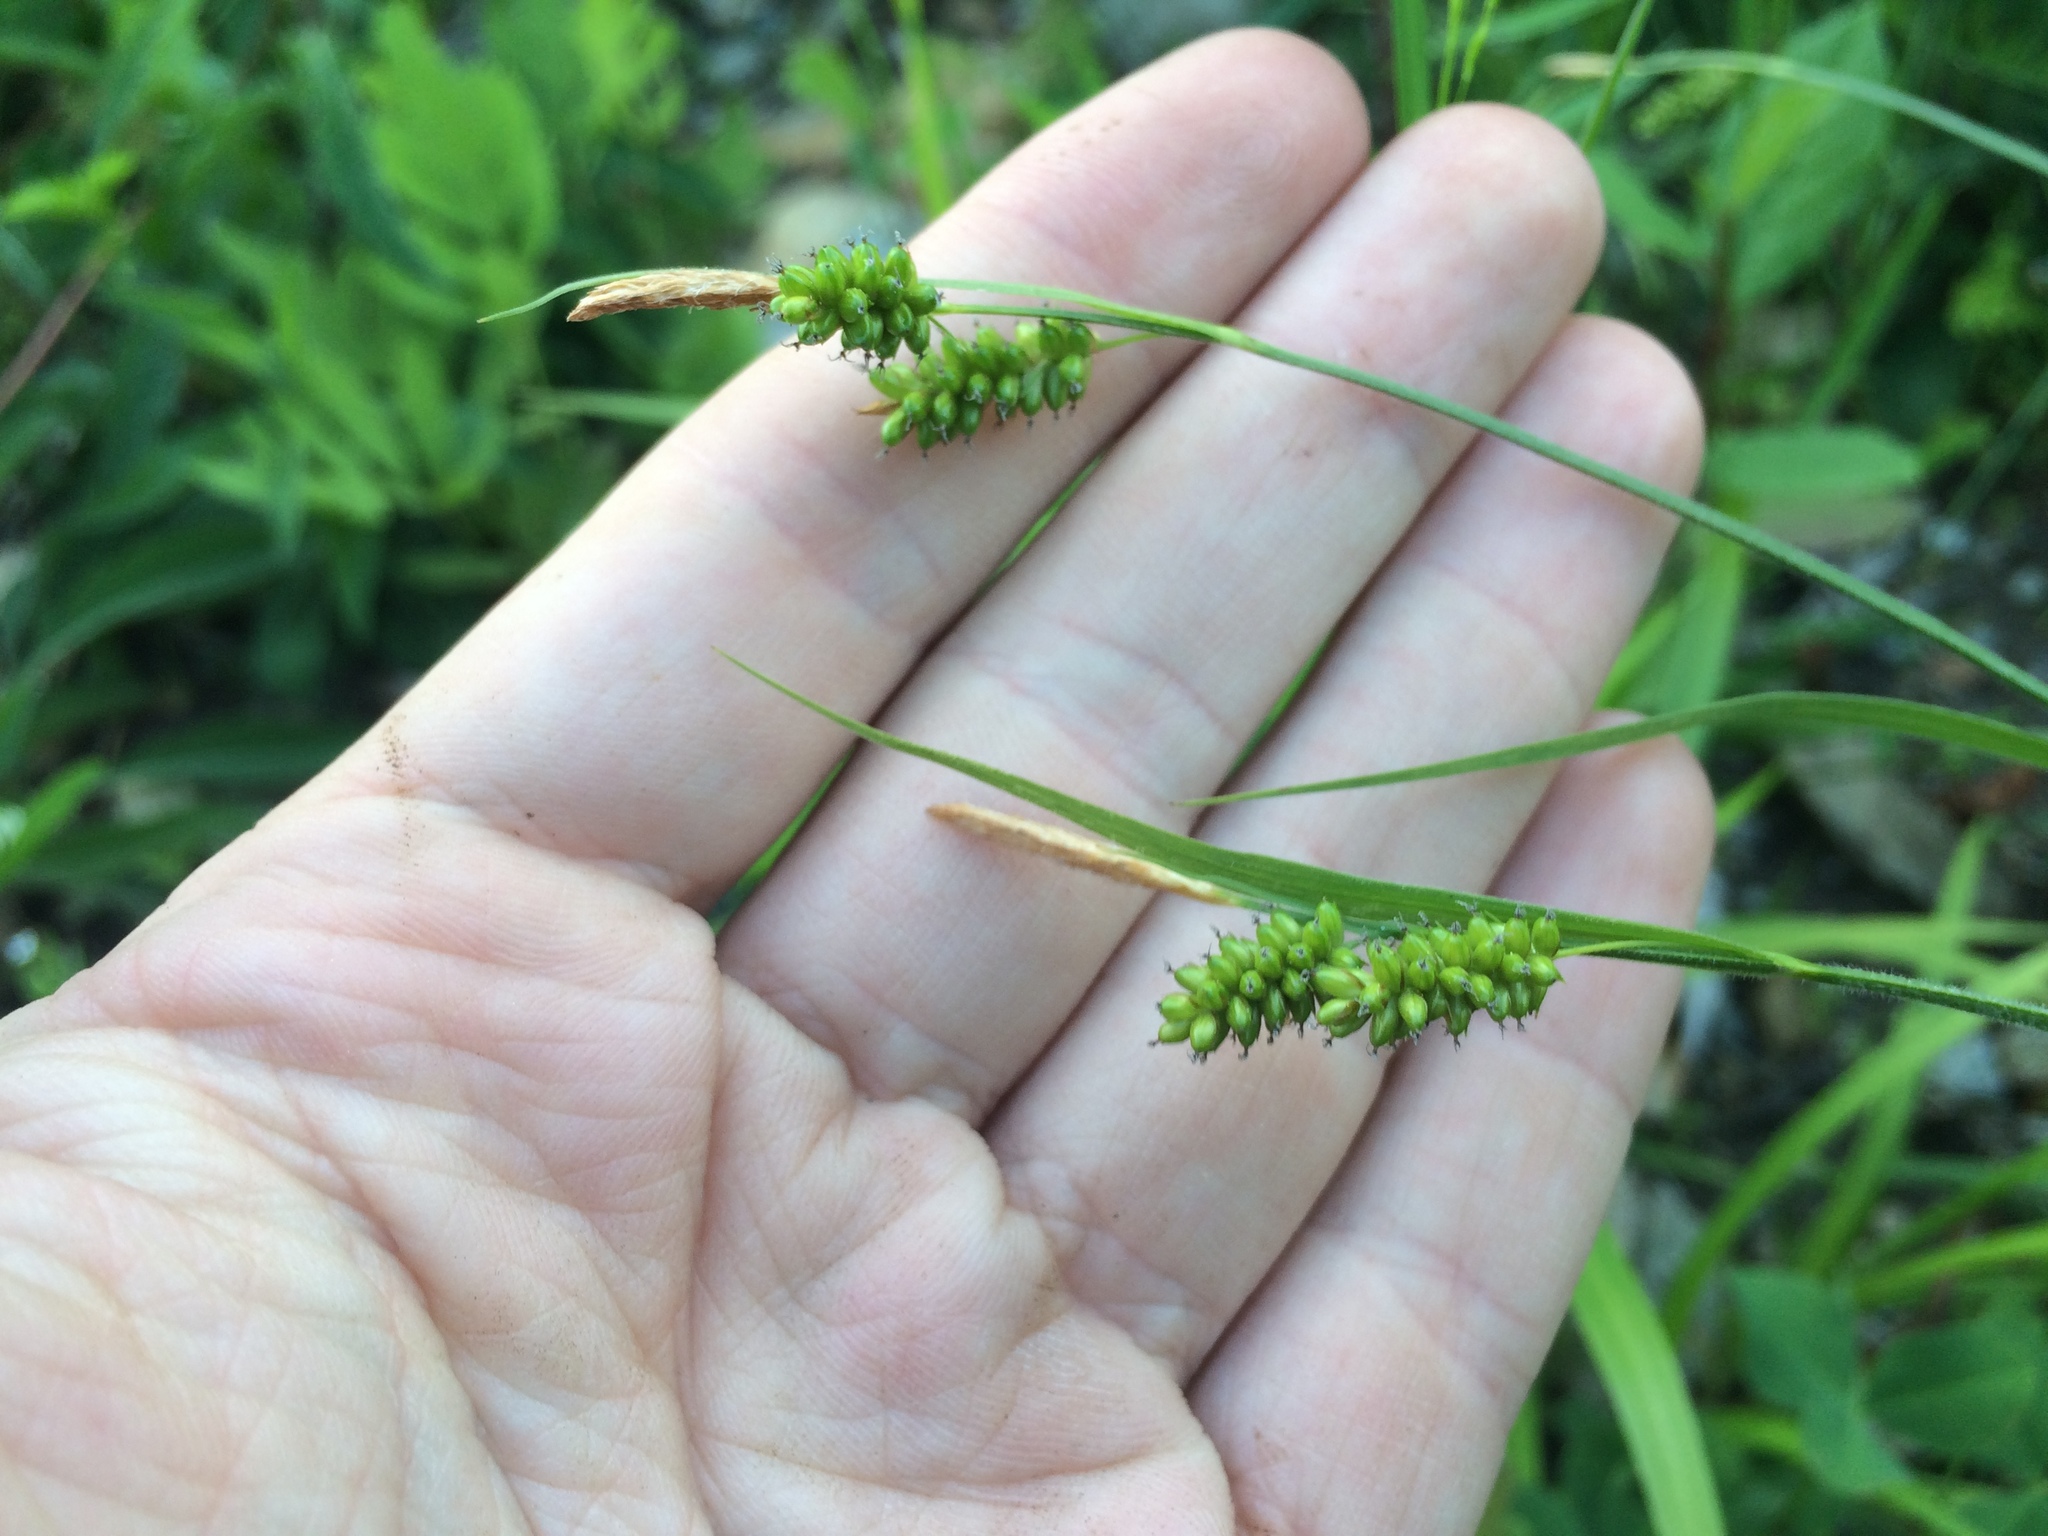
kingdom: Plantae
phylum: Tracheophyta
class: Liliopsida
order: Poales
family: Cyperaceae
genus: Carex
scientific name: Carex pallescens
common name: Pale sedge
